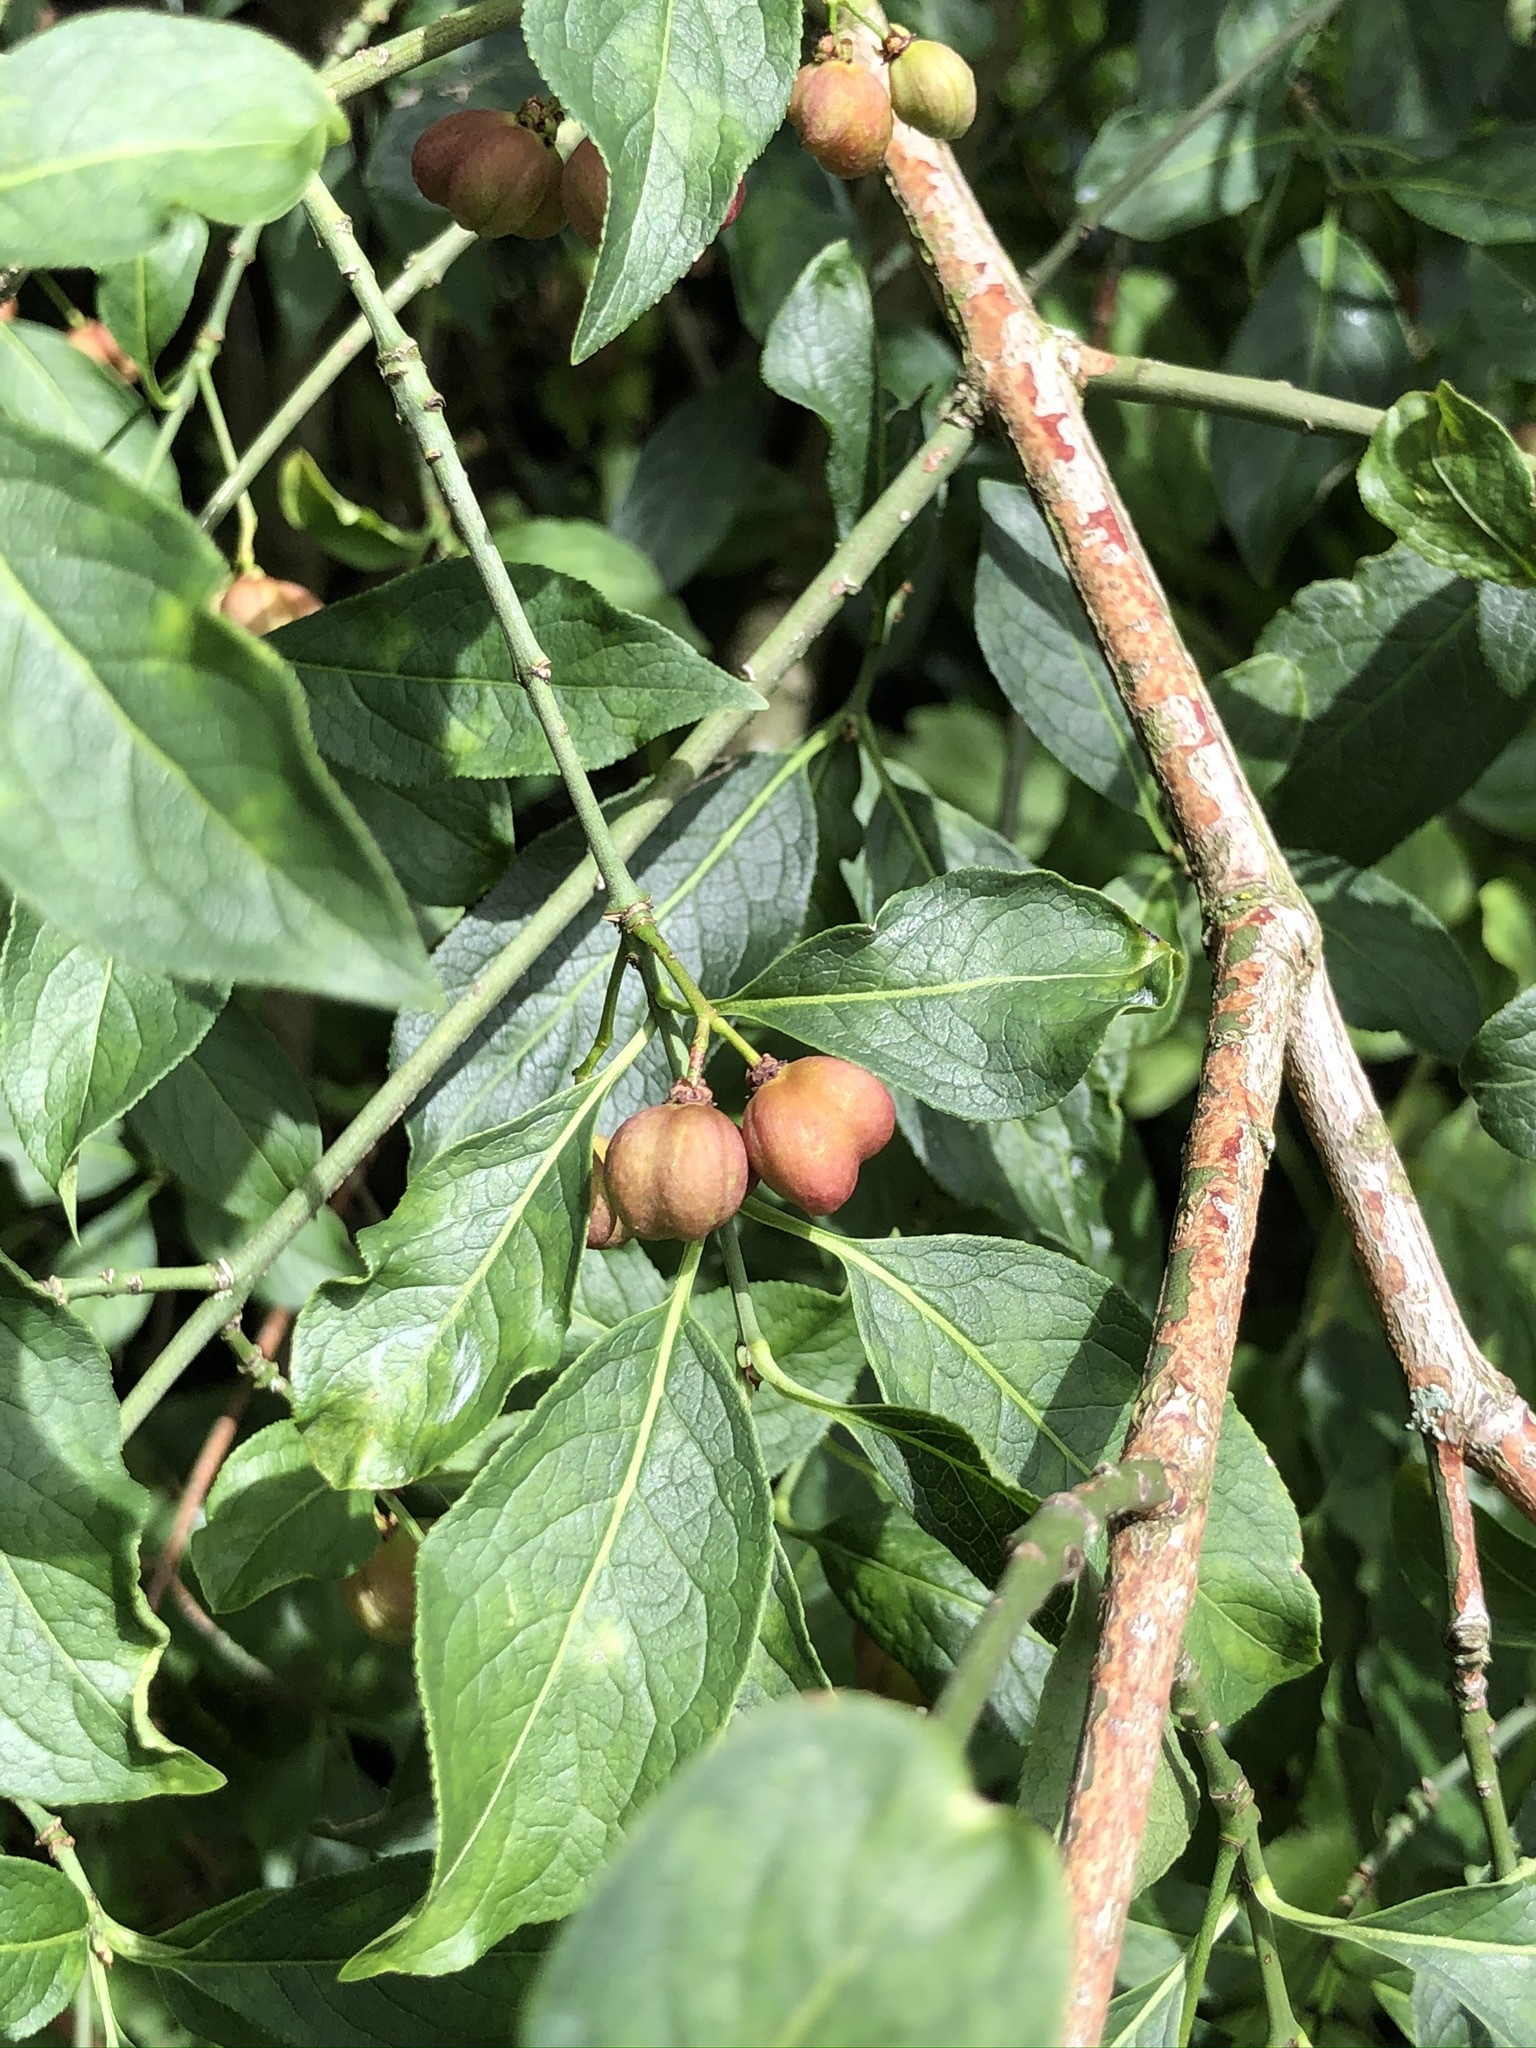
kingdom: Plantae
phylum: Tracheophyta
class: Magnoliopsida
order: Celastrales
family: Celastraceae
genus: Euonymus
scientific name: Euonymus europaeus
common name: Spindle
